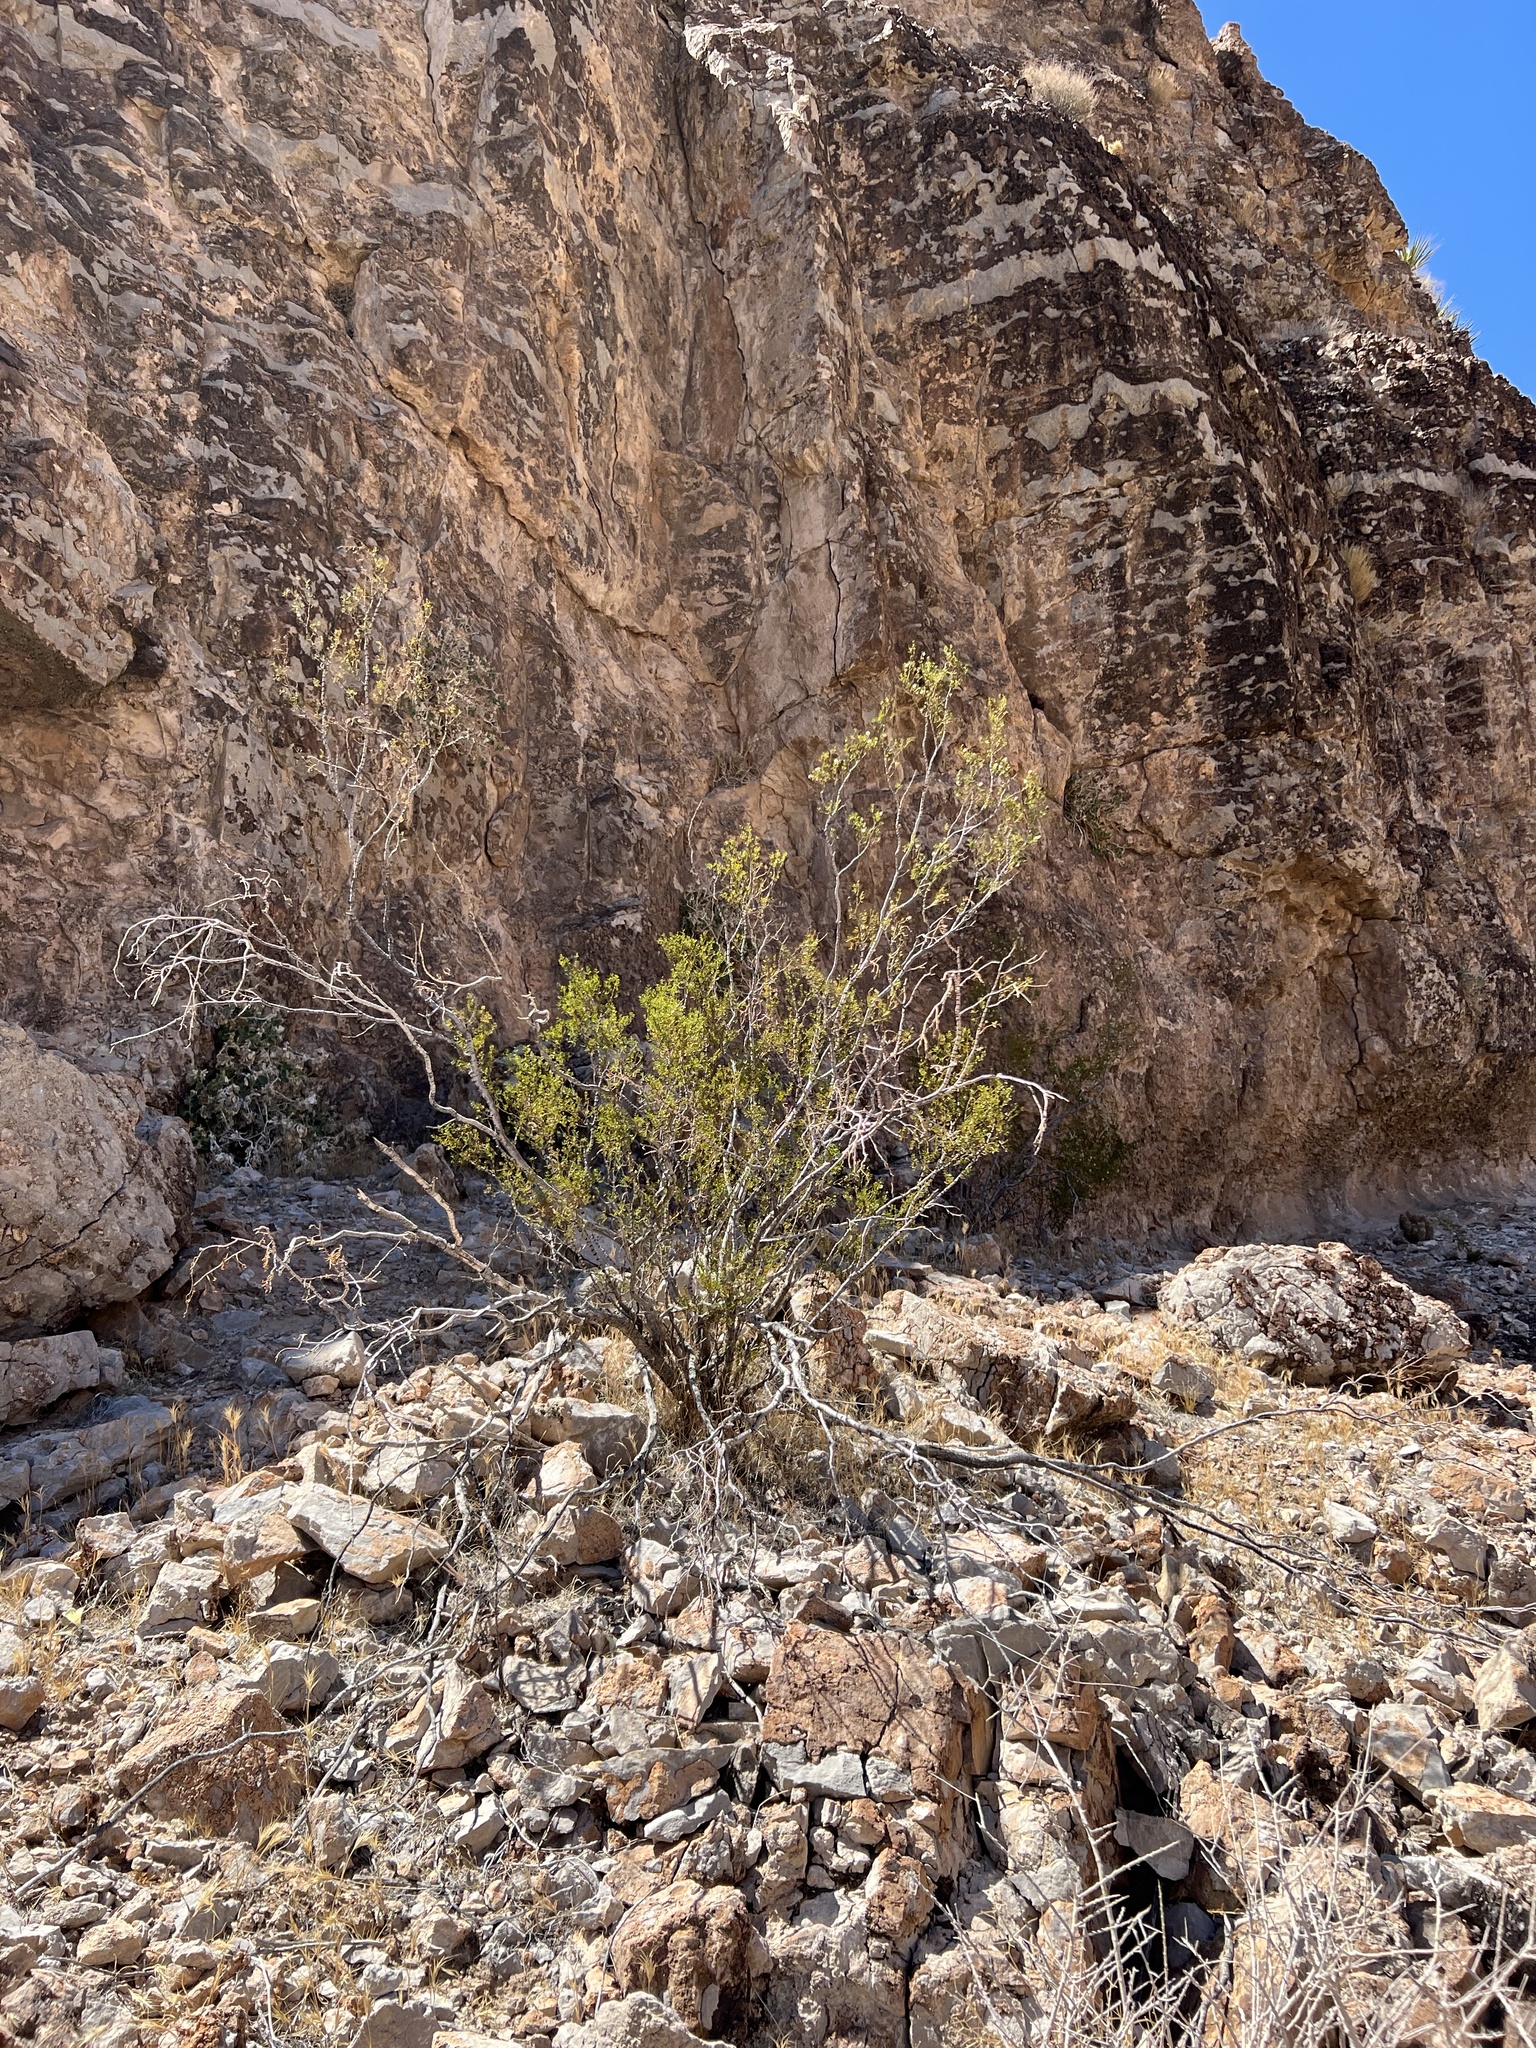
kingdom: Plantae
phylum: Tracheophyta
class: Magnoliopsida
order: Zygophyllales
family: Zygophyllaceae
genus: Larrea
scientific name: Larrea tridentata
